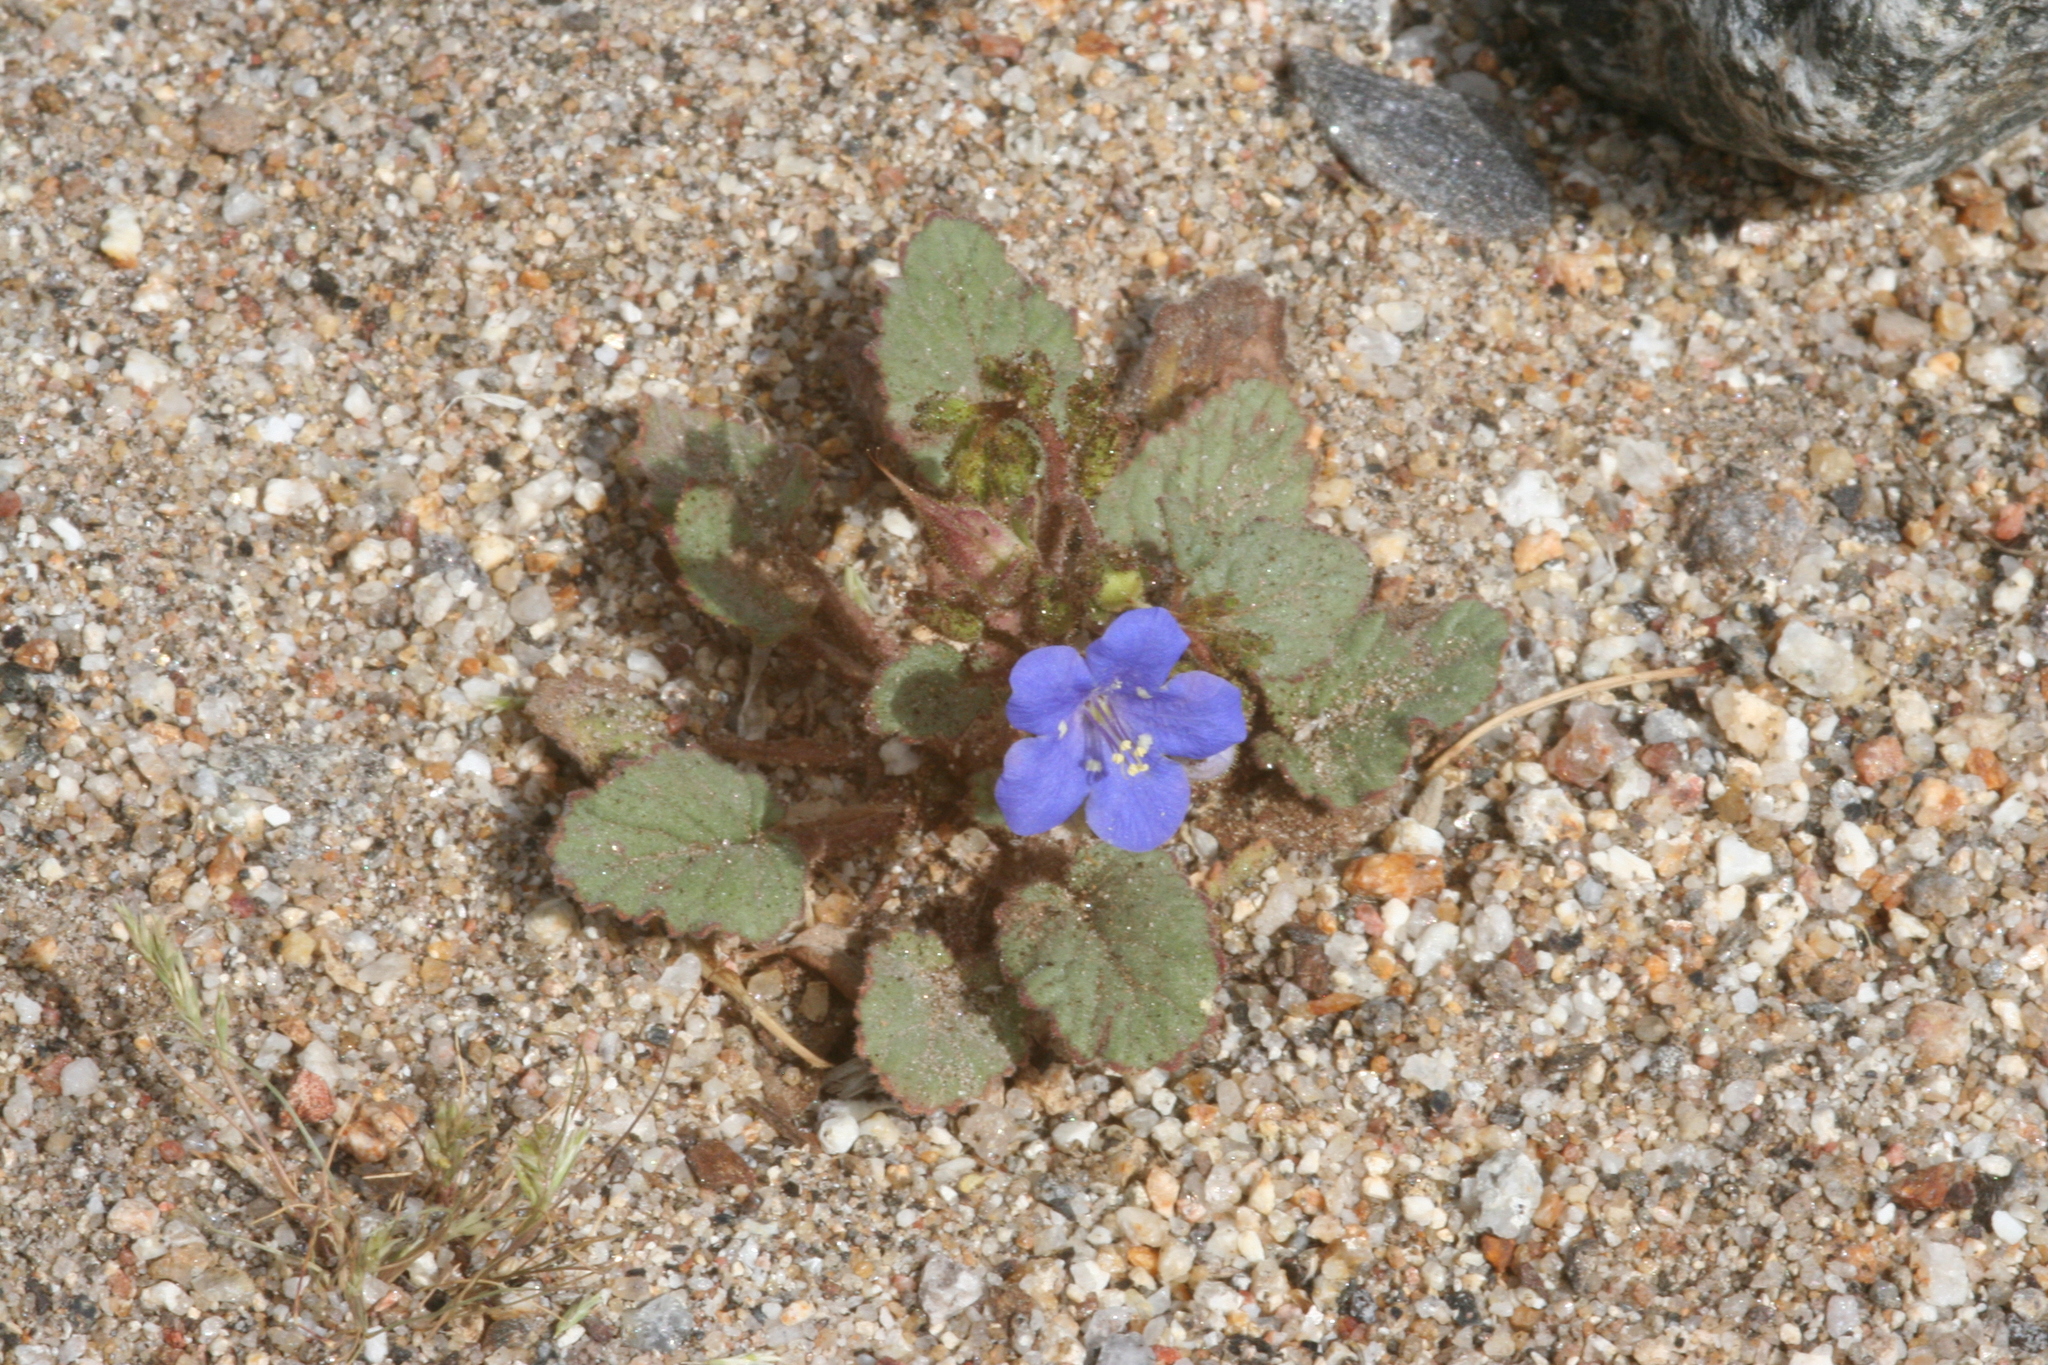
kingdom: Plantae
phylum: Tracheophyta
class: Magnoliopsida
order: Boraginales
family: Hydrophyllaceae
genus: Phacelia
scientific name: Phacelia campanularia
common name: California bluebell
